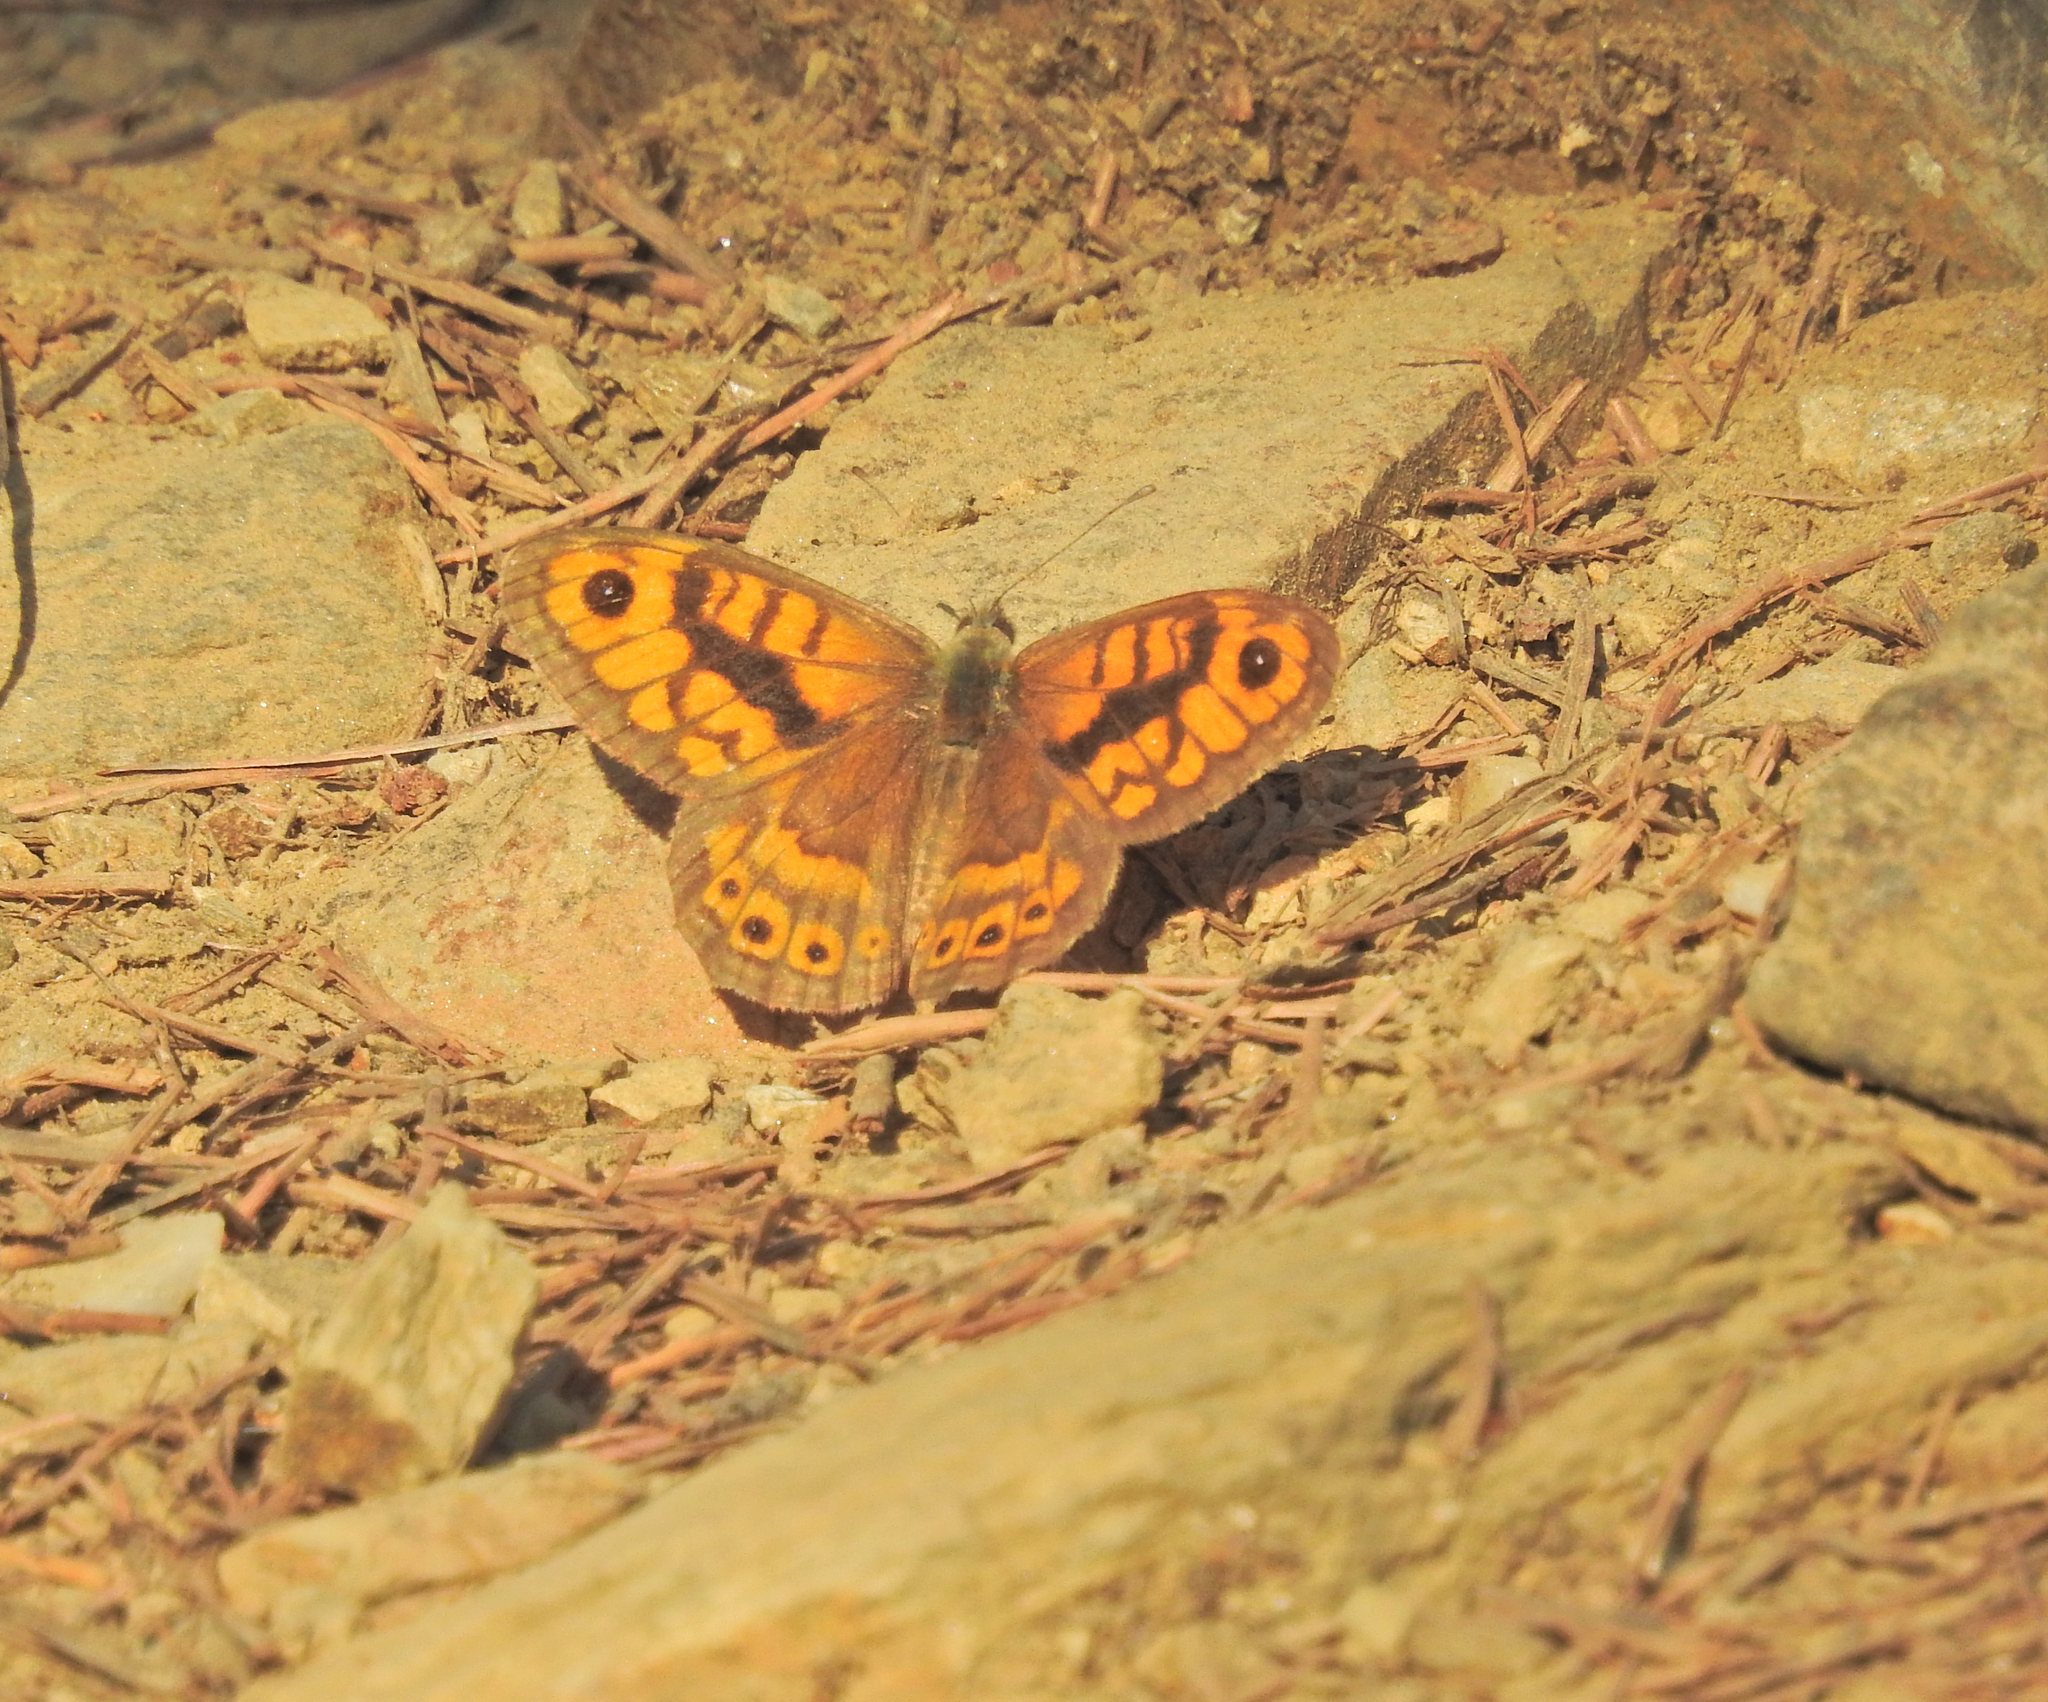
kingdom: Animalia
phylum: Arthropoda
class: Insecta
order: Lepidoptera
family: Nymphalidae
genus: Pararge
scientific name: Pararge Lasiommata megera
